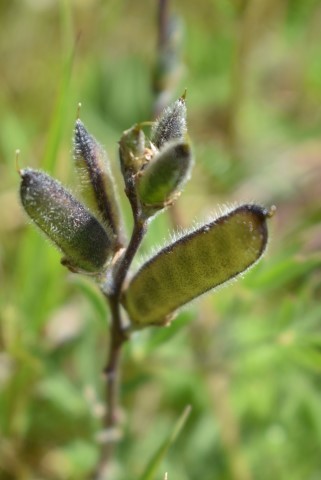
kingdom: Plantae
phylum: Tracheophyta
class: Magnoliopsida
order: Fabales
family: Fabaceae
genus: Lupinus
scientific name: Lupinus bicolor
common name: Miniature lupine
